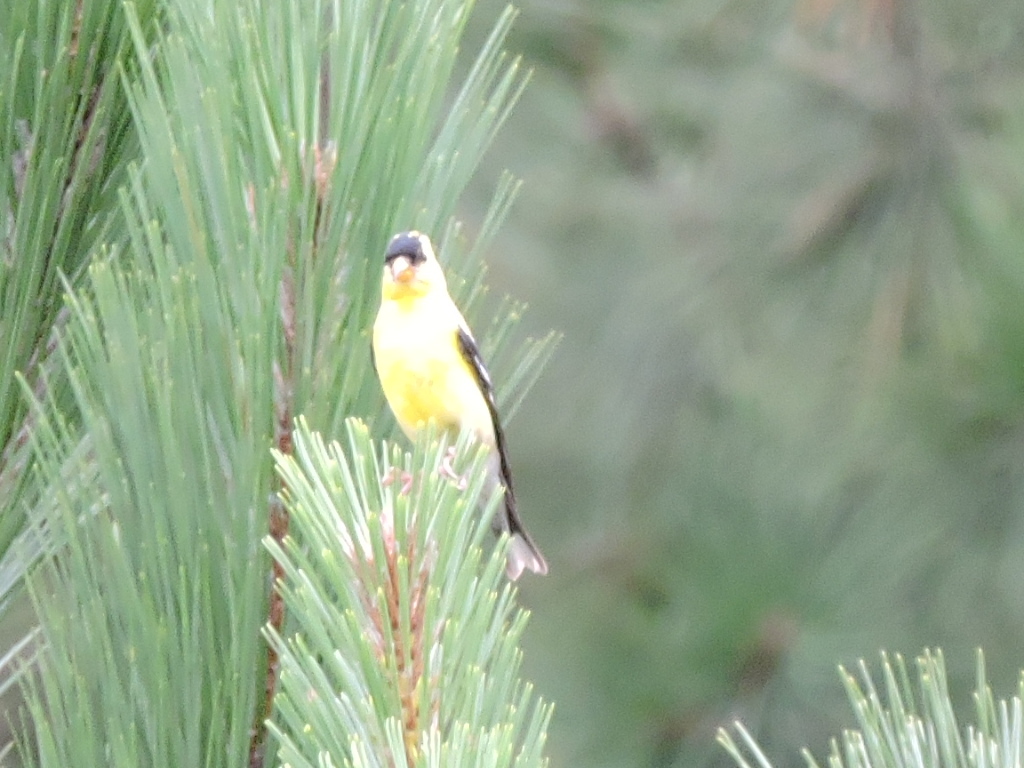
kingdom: Animalia
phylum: Chordata
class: Aves
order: Passeriformes
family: Fringillidae
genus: Spinus
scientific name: Spinus tristis
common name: American goldfinch
